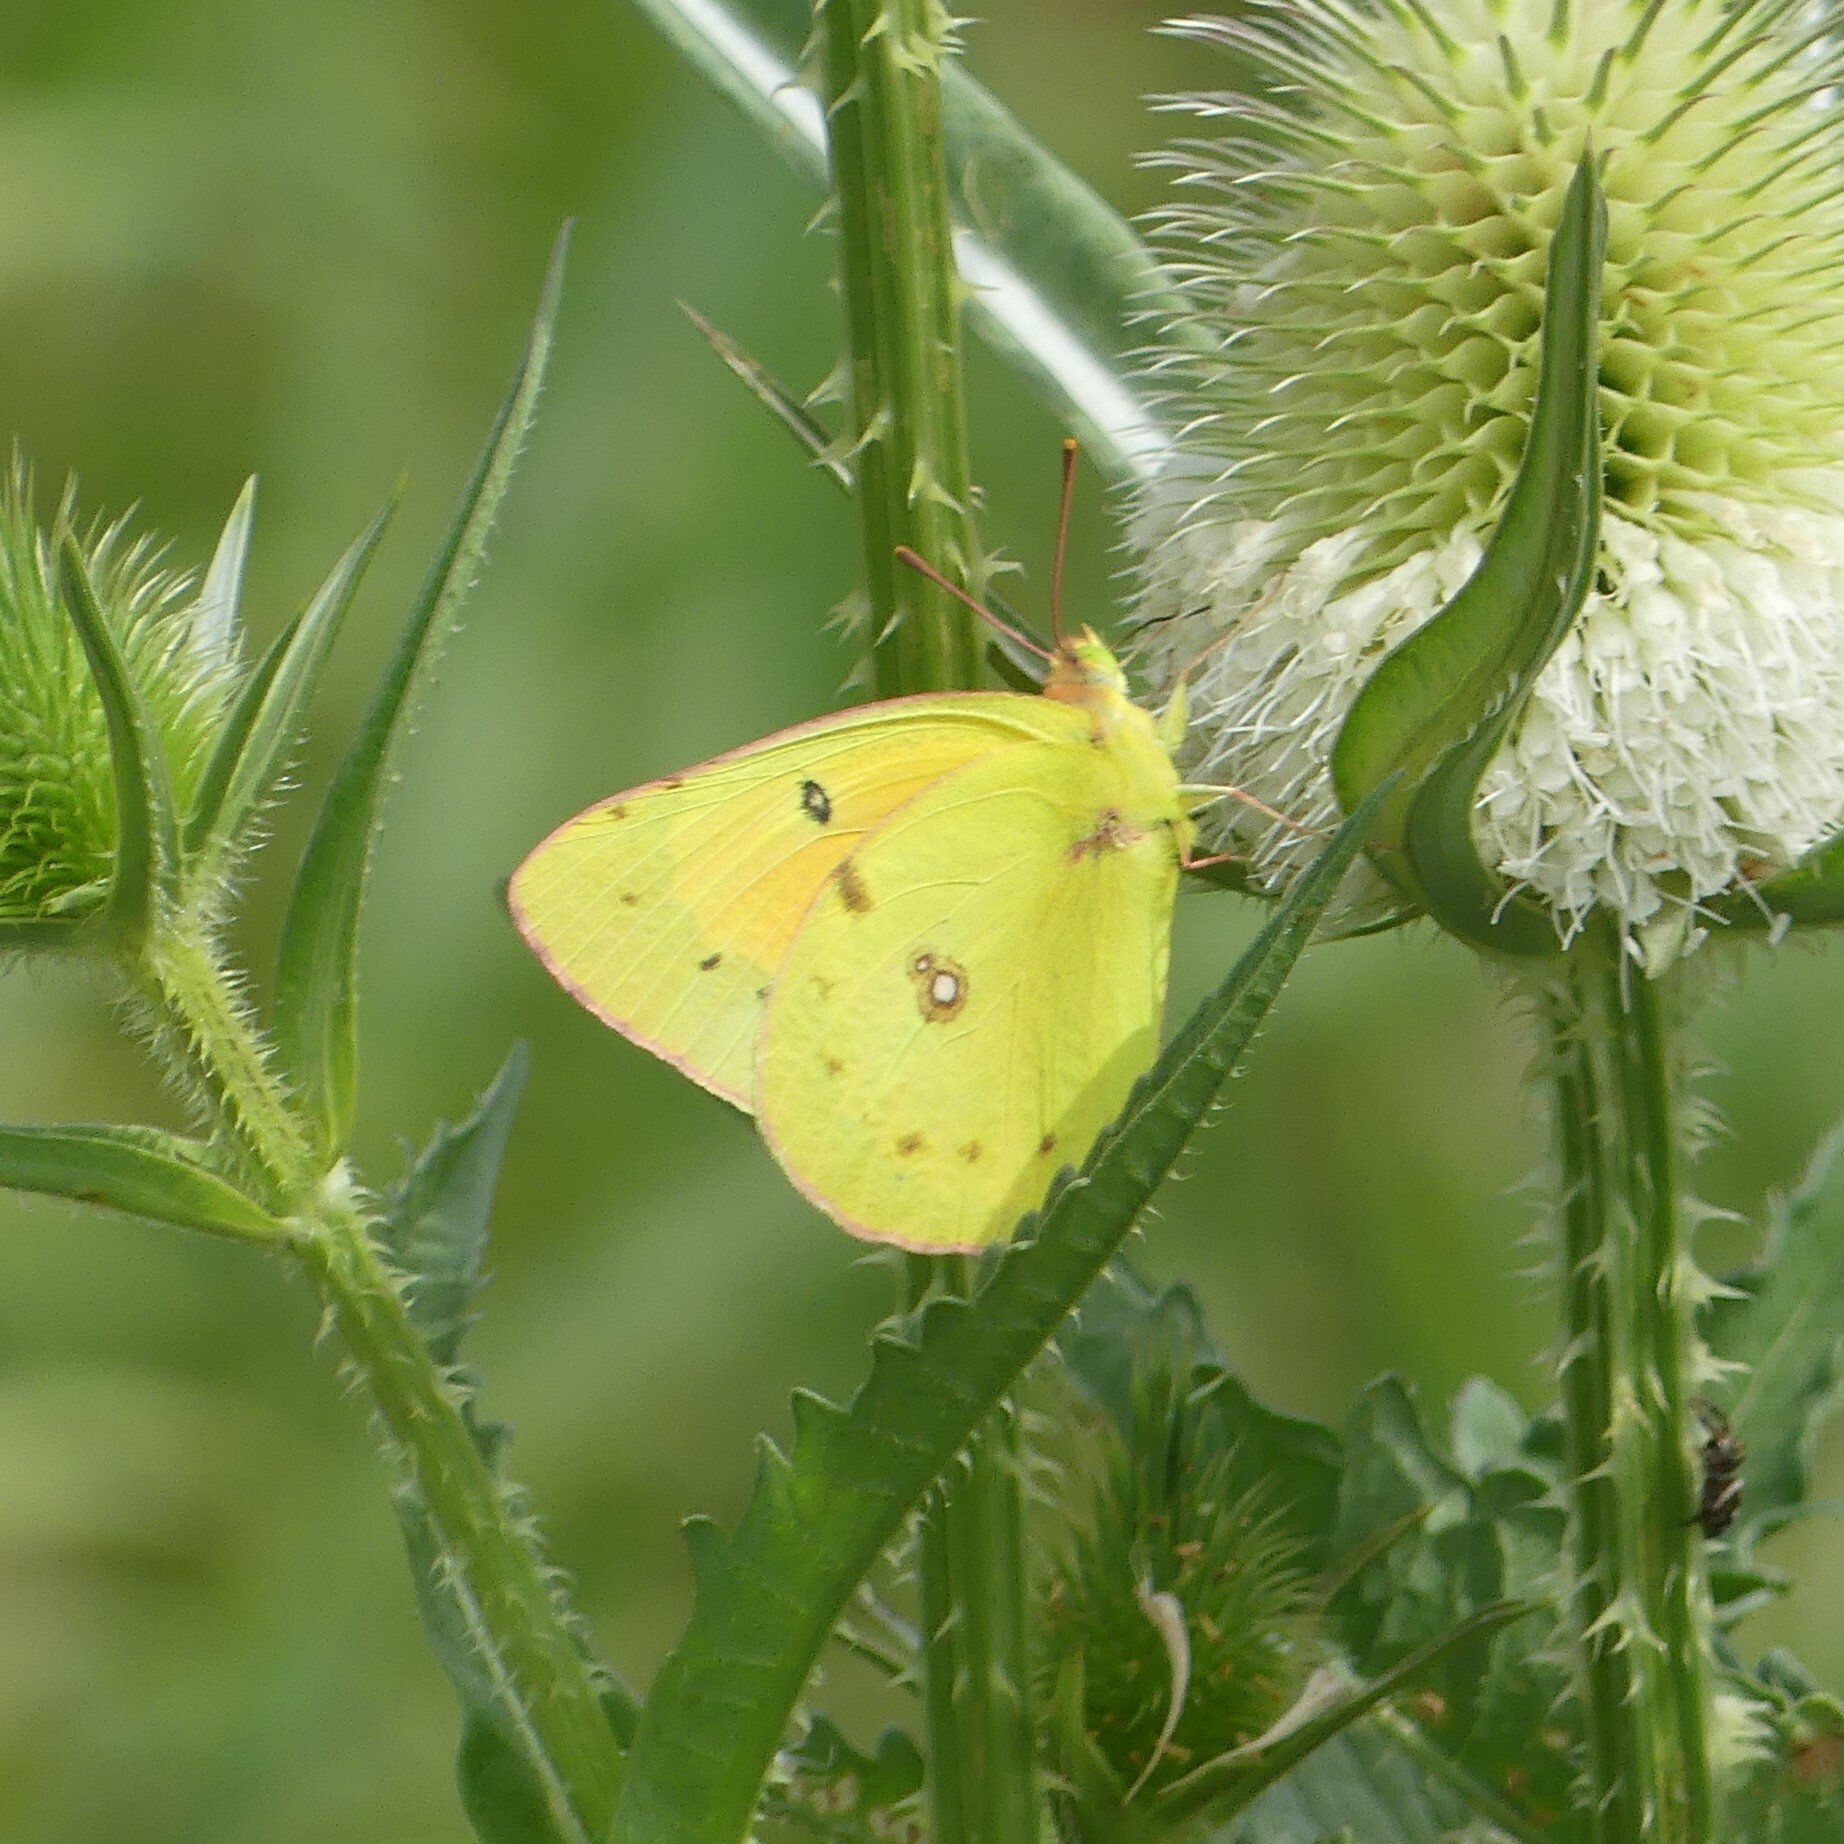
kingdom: Animalia
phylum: Arthropoda
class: Insecta
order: Lepidoptera
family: Pieridae
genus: Colias
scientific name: Colias eurytheme
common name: Alfalfa butterfly
